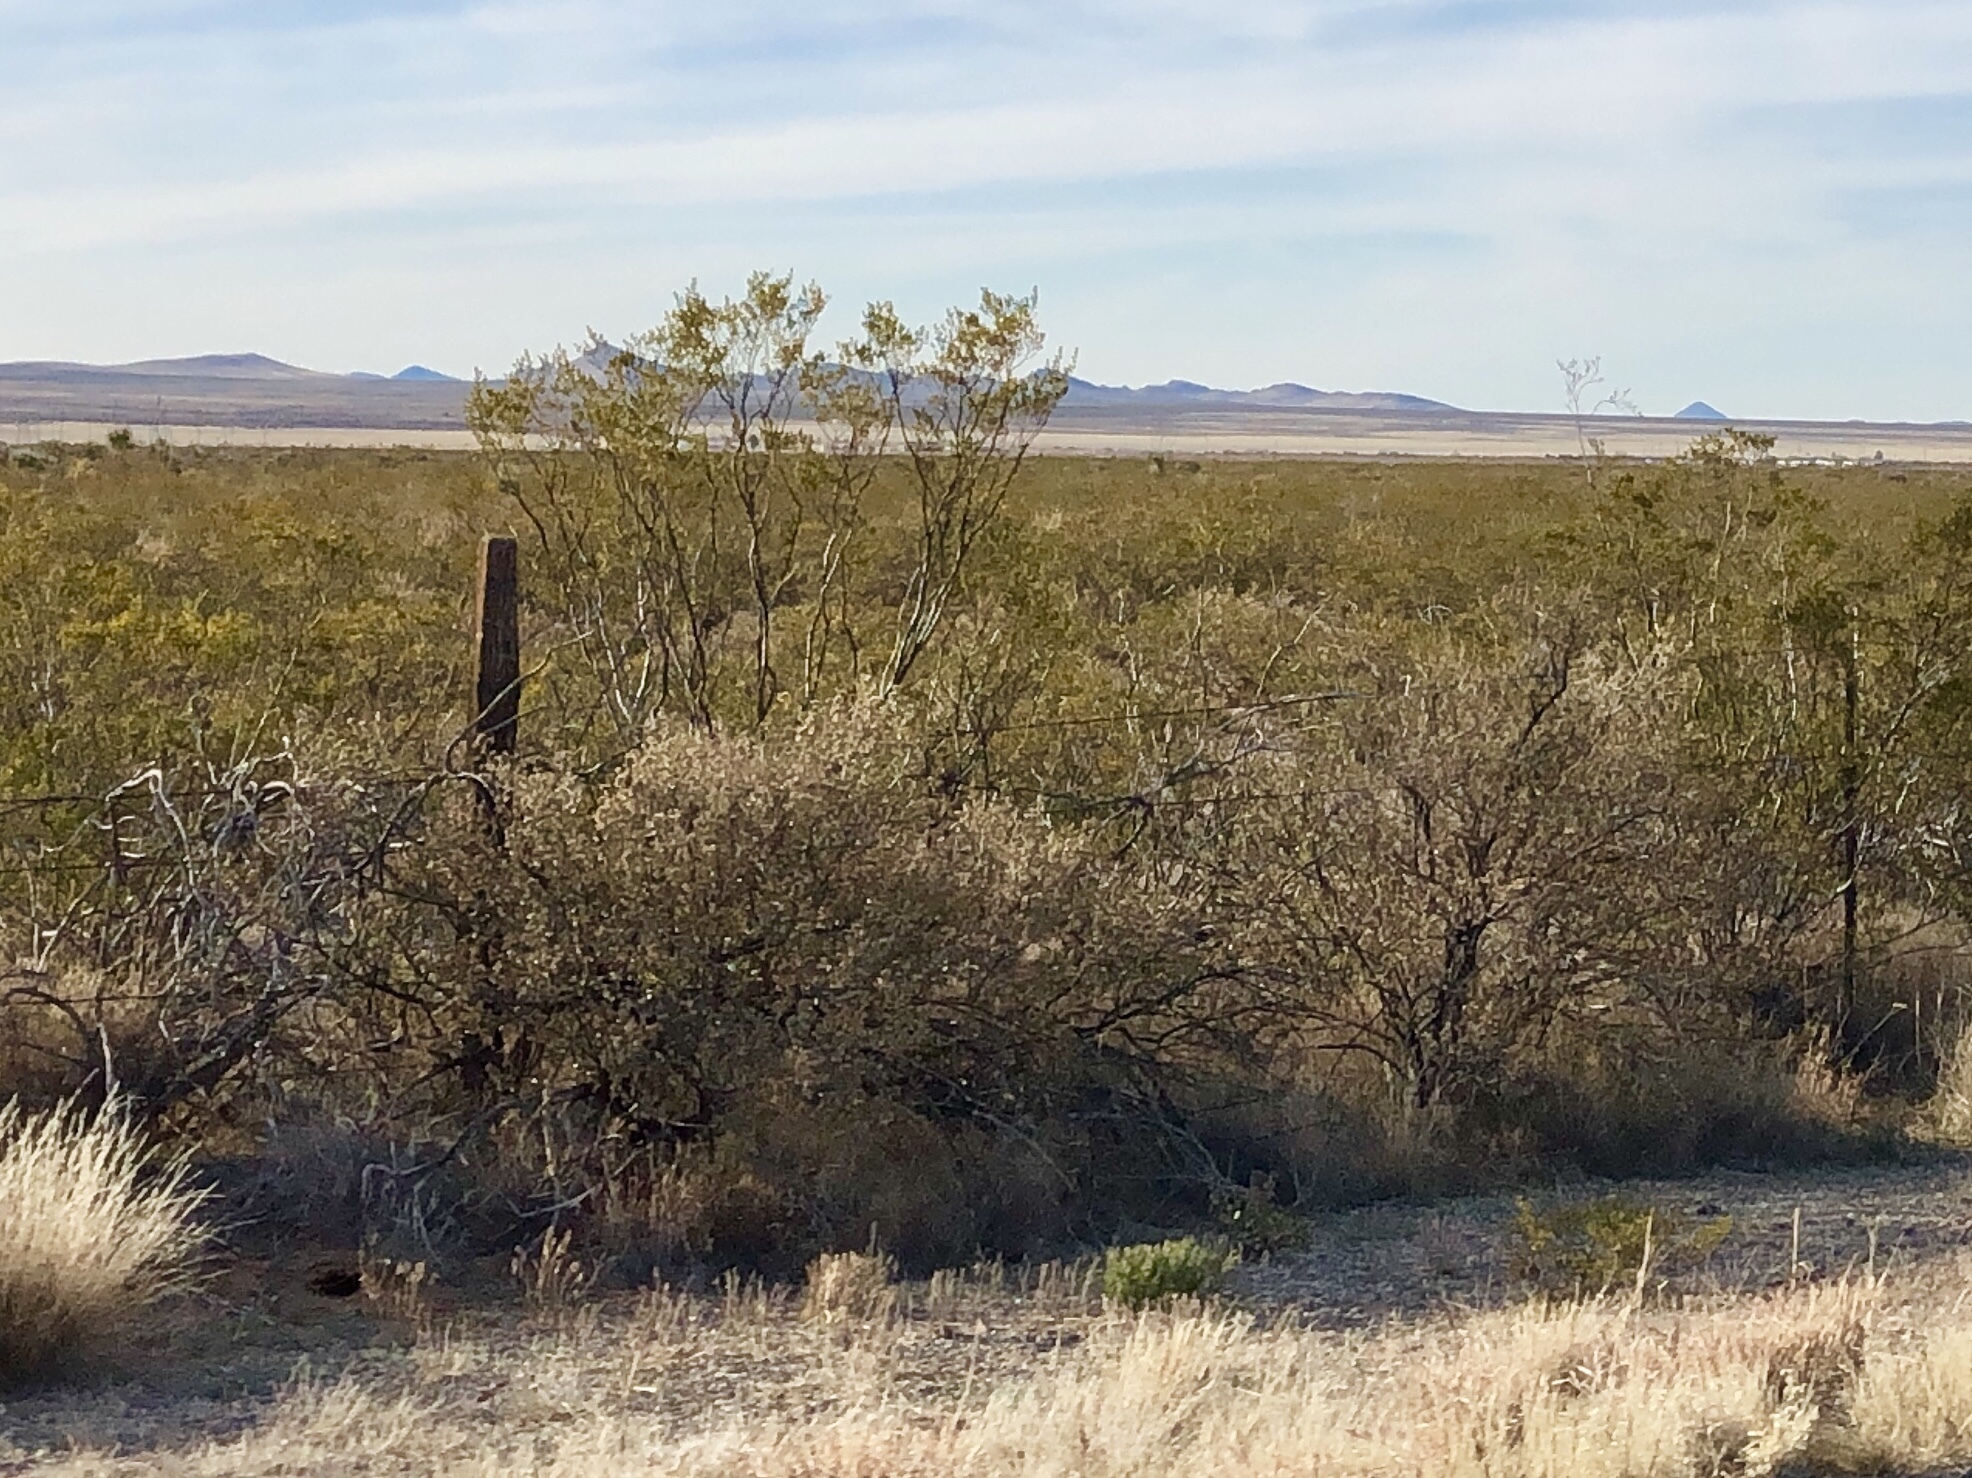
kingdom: Plantae
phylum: Tracheophyta
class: Magnoliopsida
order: Zygophyllales
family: Zygophyllaceae
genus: Larrea
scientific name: Larrea tridentata
